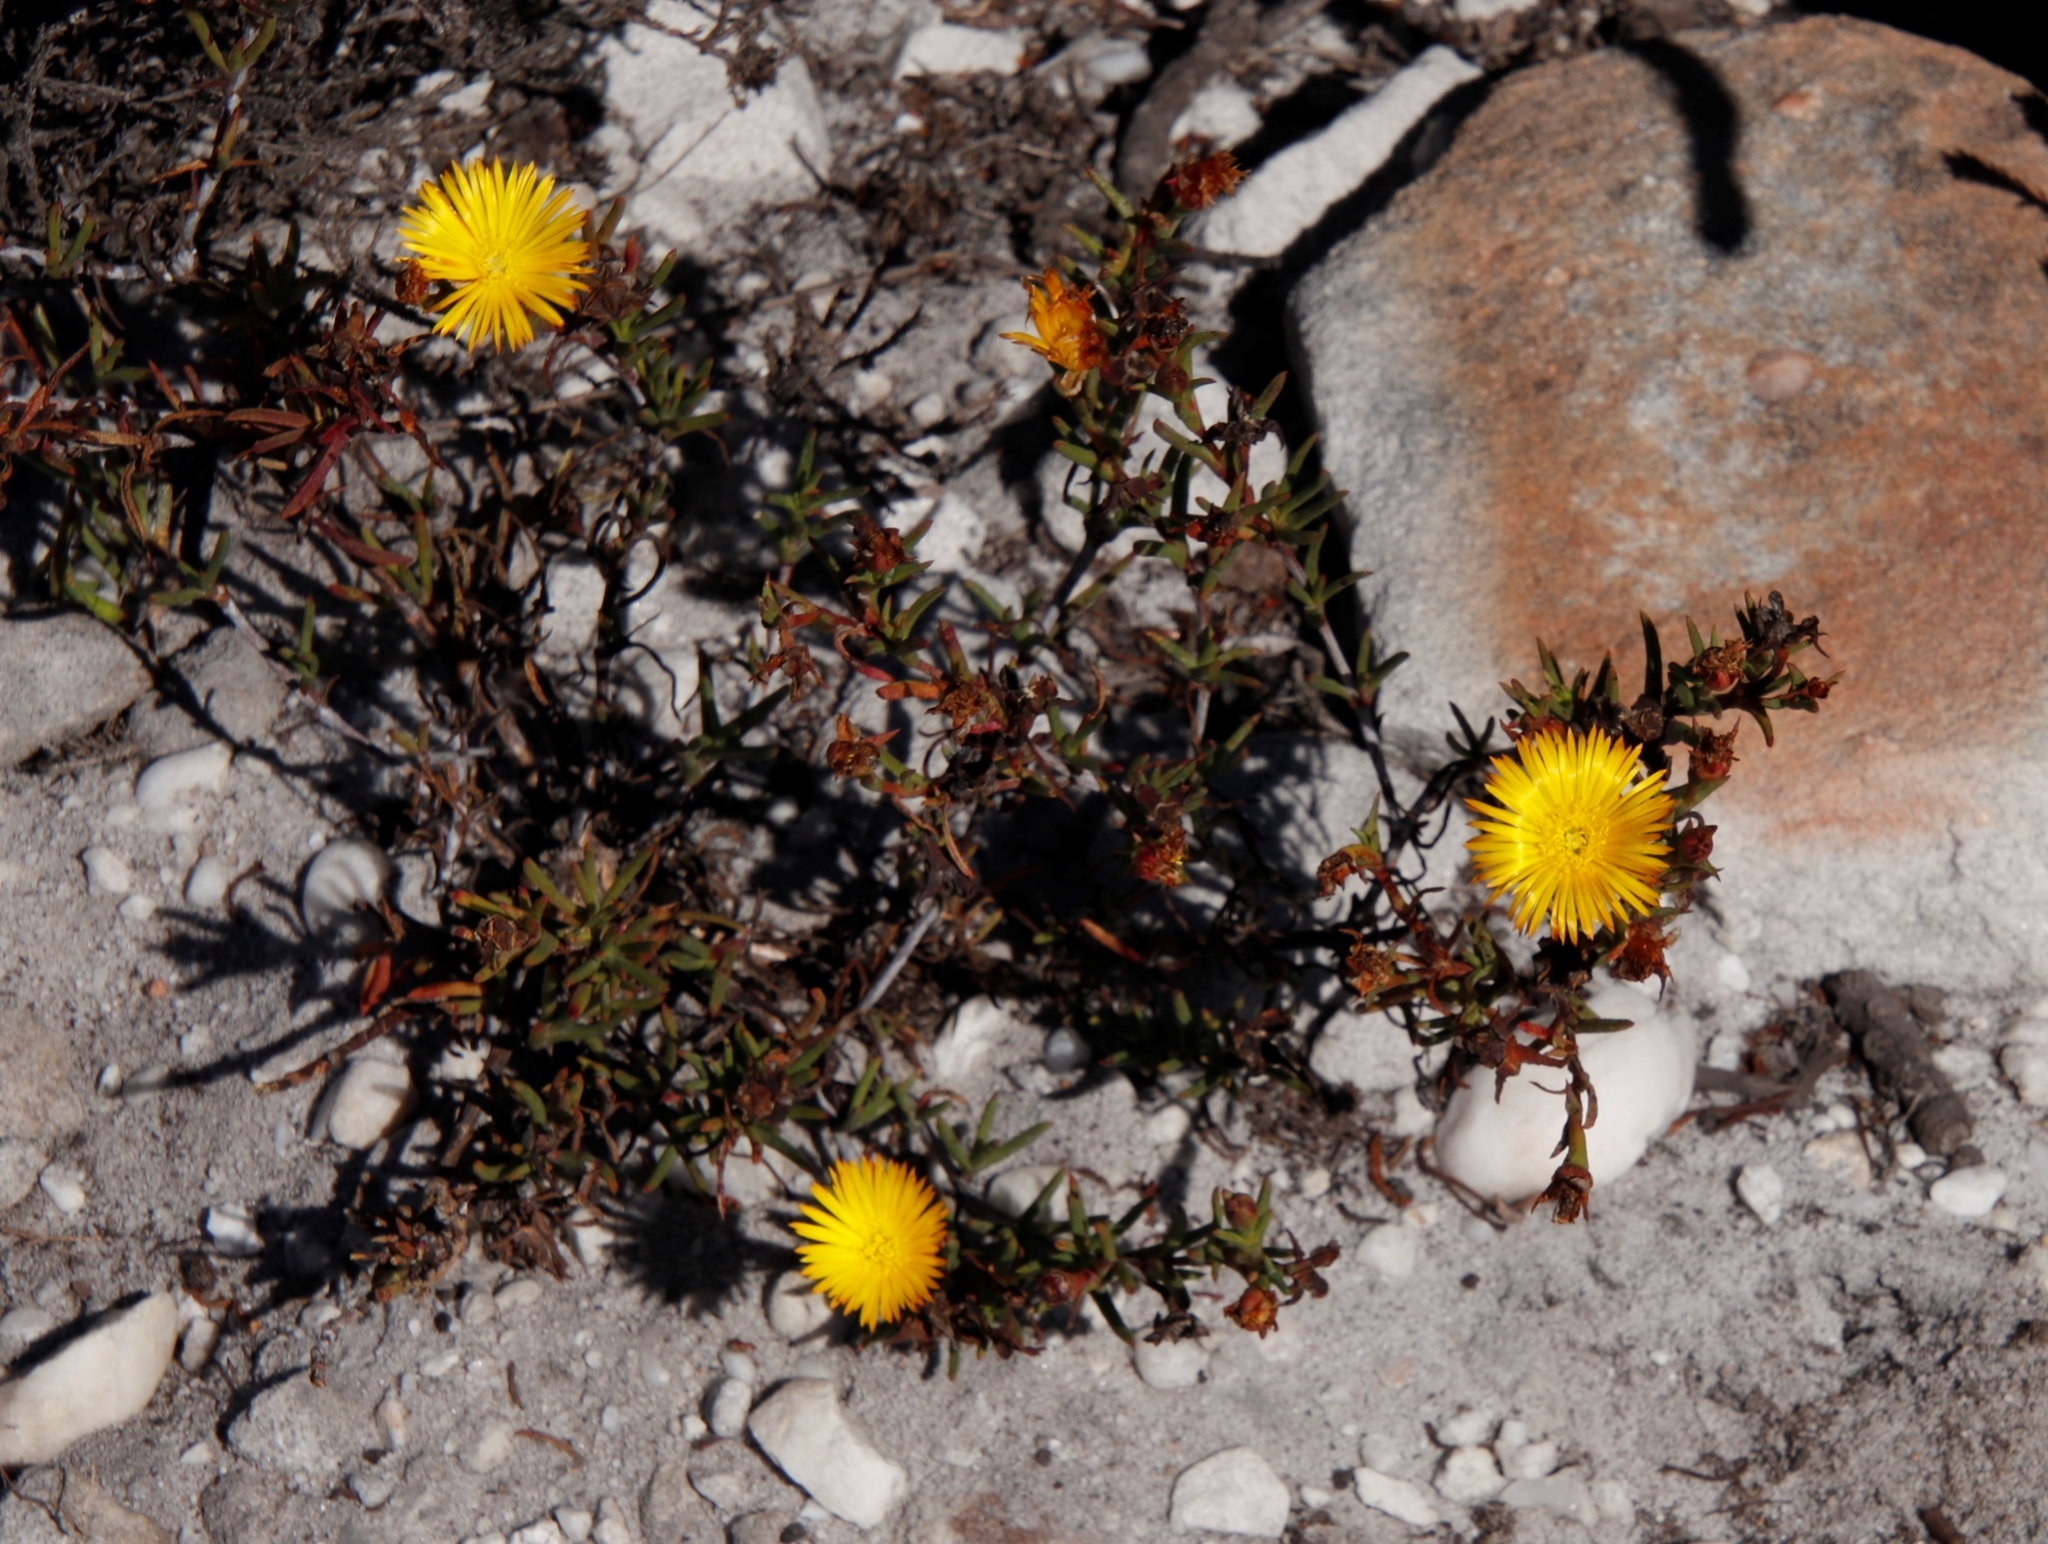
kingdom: Plantae
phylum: Tracheophyta
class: Magnoliopsida
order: Caryophyllales
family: Aizoaceae
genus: Lampranthus
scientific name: Lampranthus bicolor
